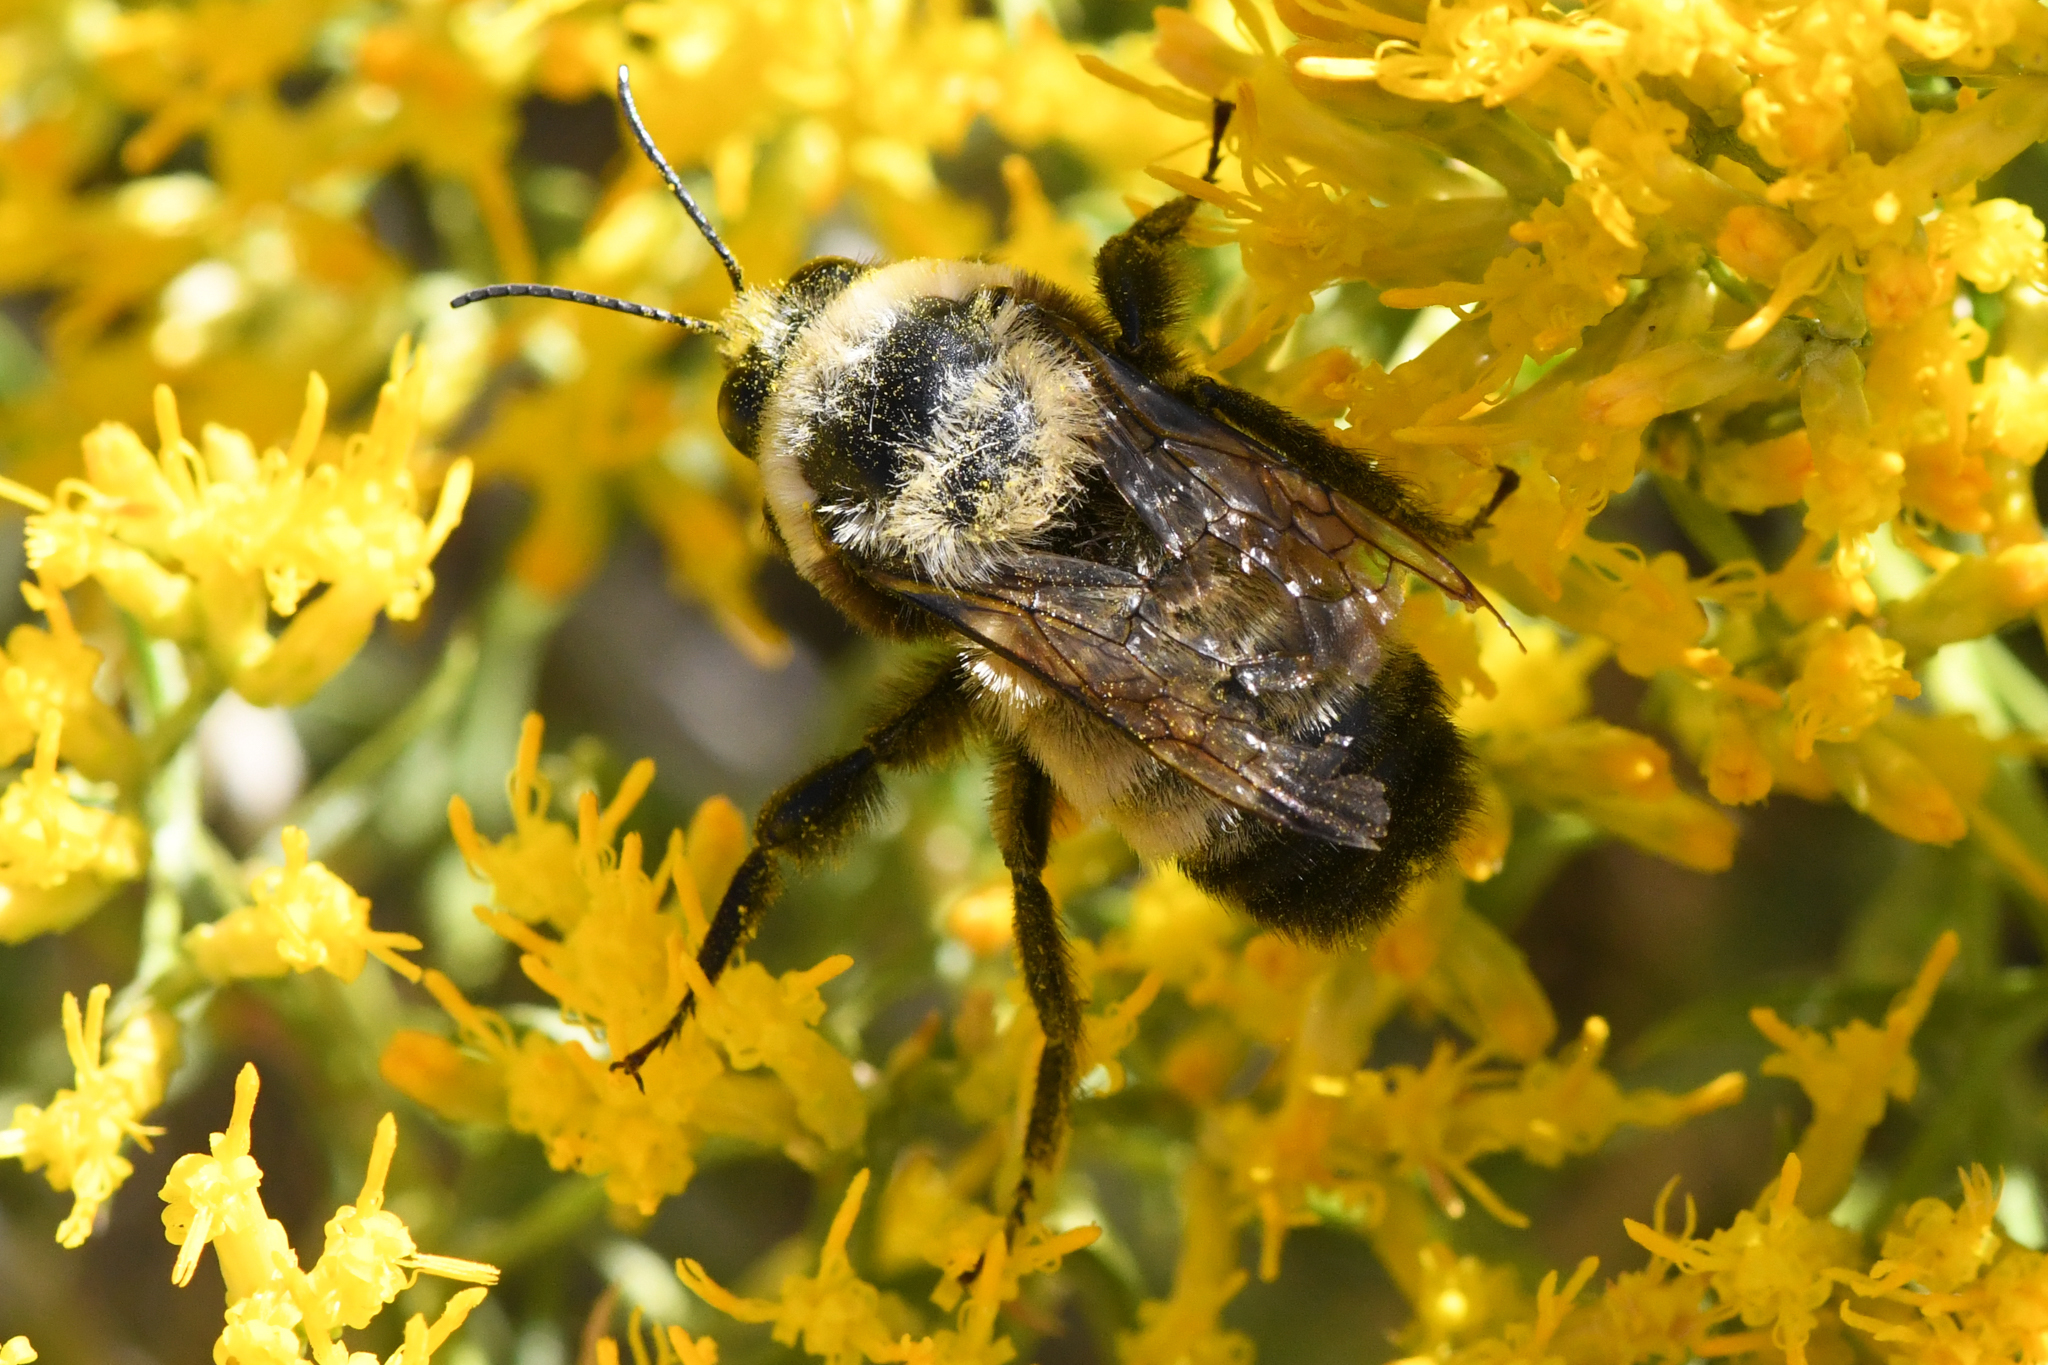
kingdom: Animalia
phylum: Arthropoda
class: Insecta
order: Hymenoptera
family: Apidae
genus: Bombus
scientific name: Bombus morrisoni
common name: Morrison bumble bee
